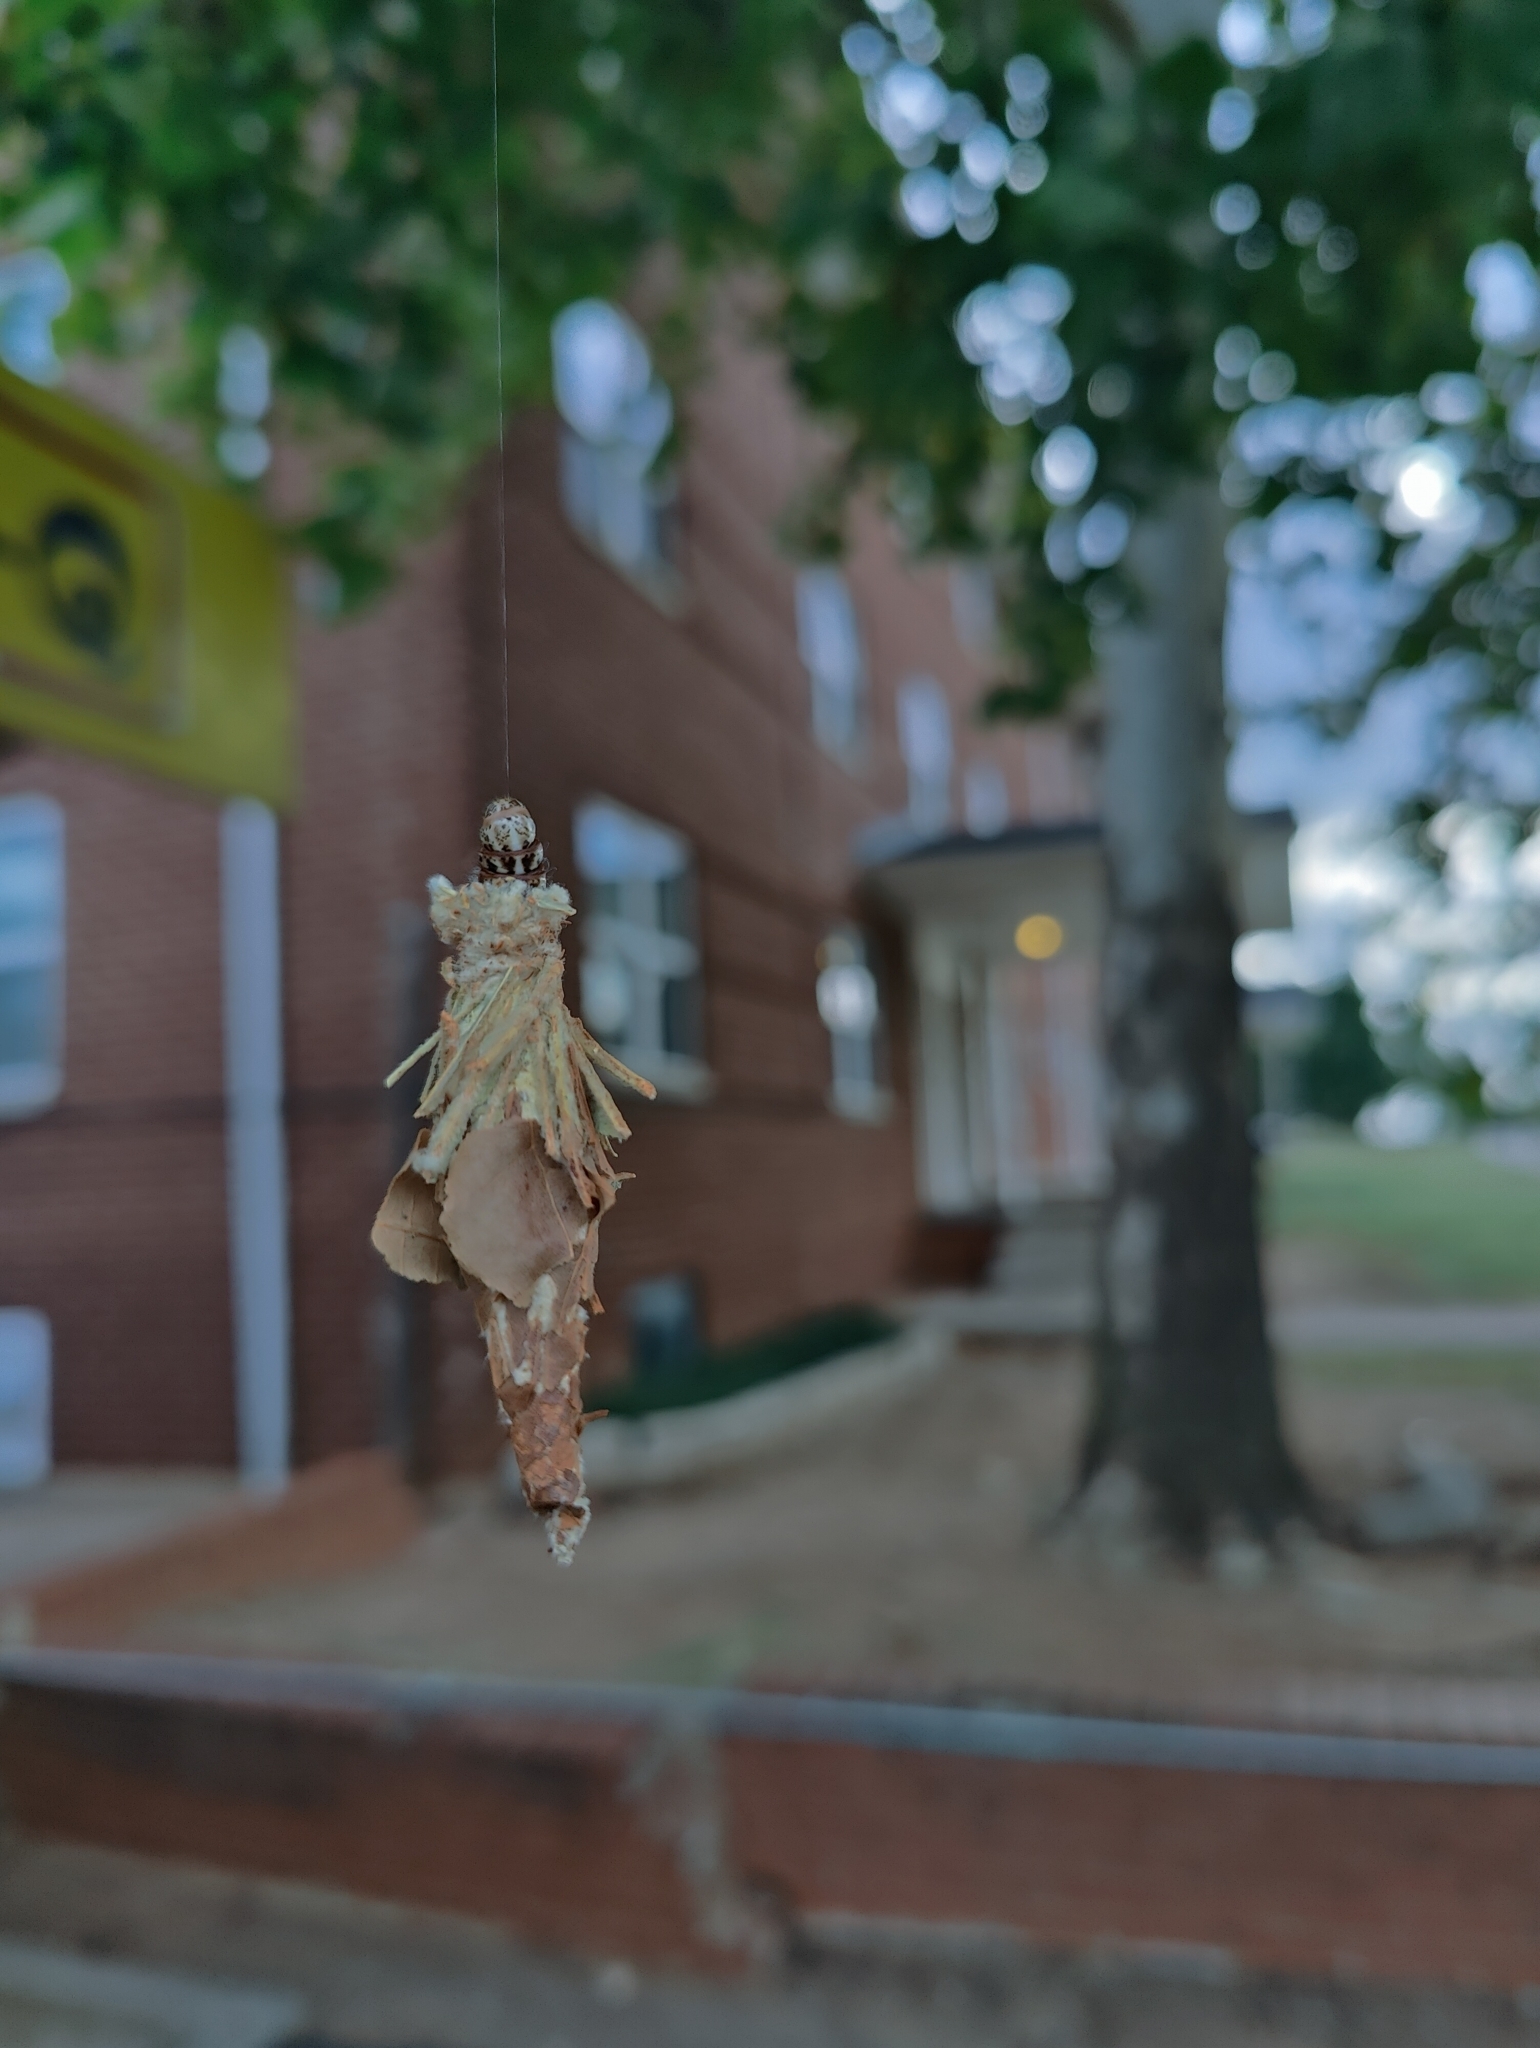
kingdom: Animalia
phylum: Arthropoda
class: Insecta
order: Lepidoptera
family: Psychidae
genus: Thyridopteryx
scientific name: Thyridopteryx ephemeraeformis
